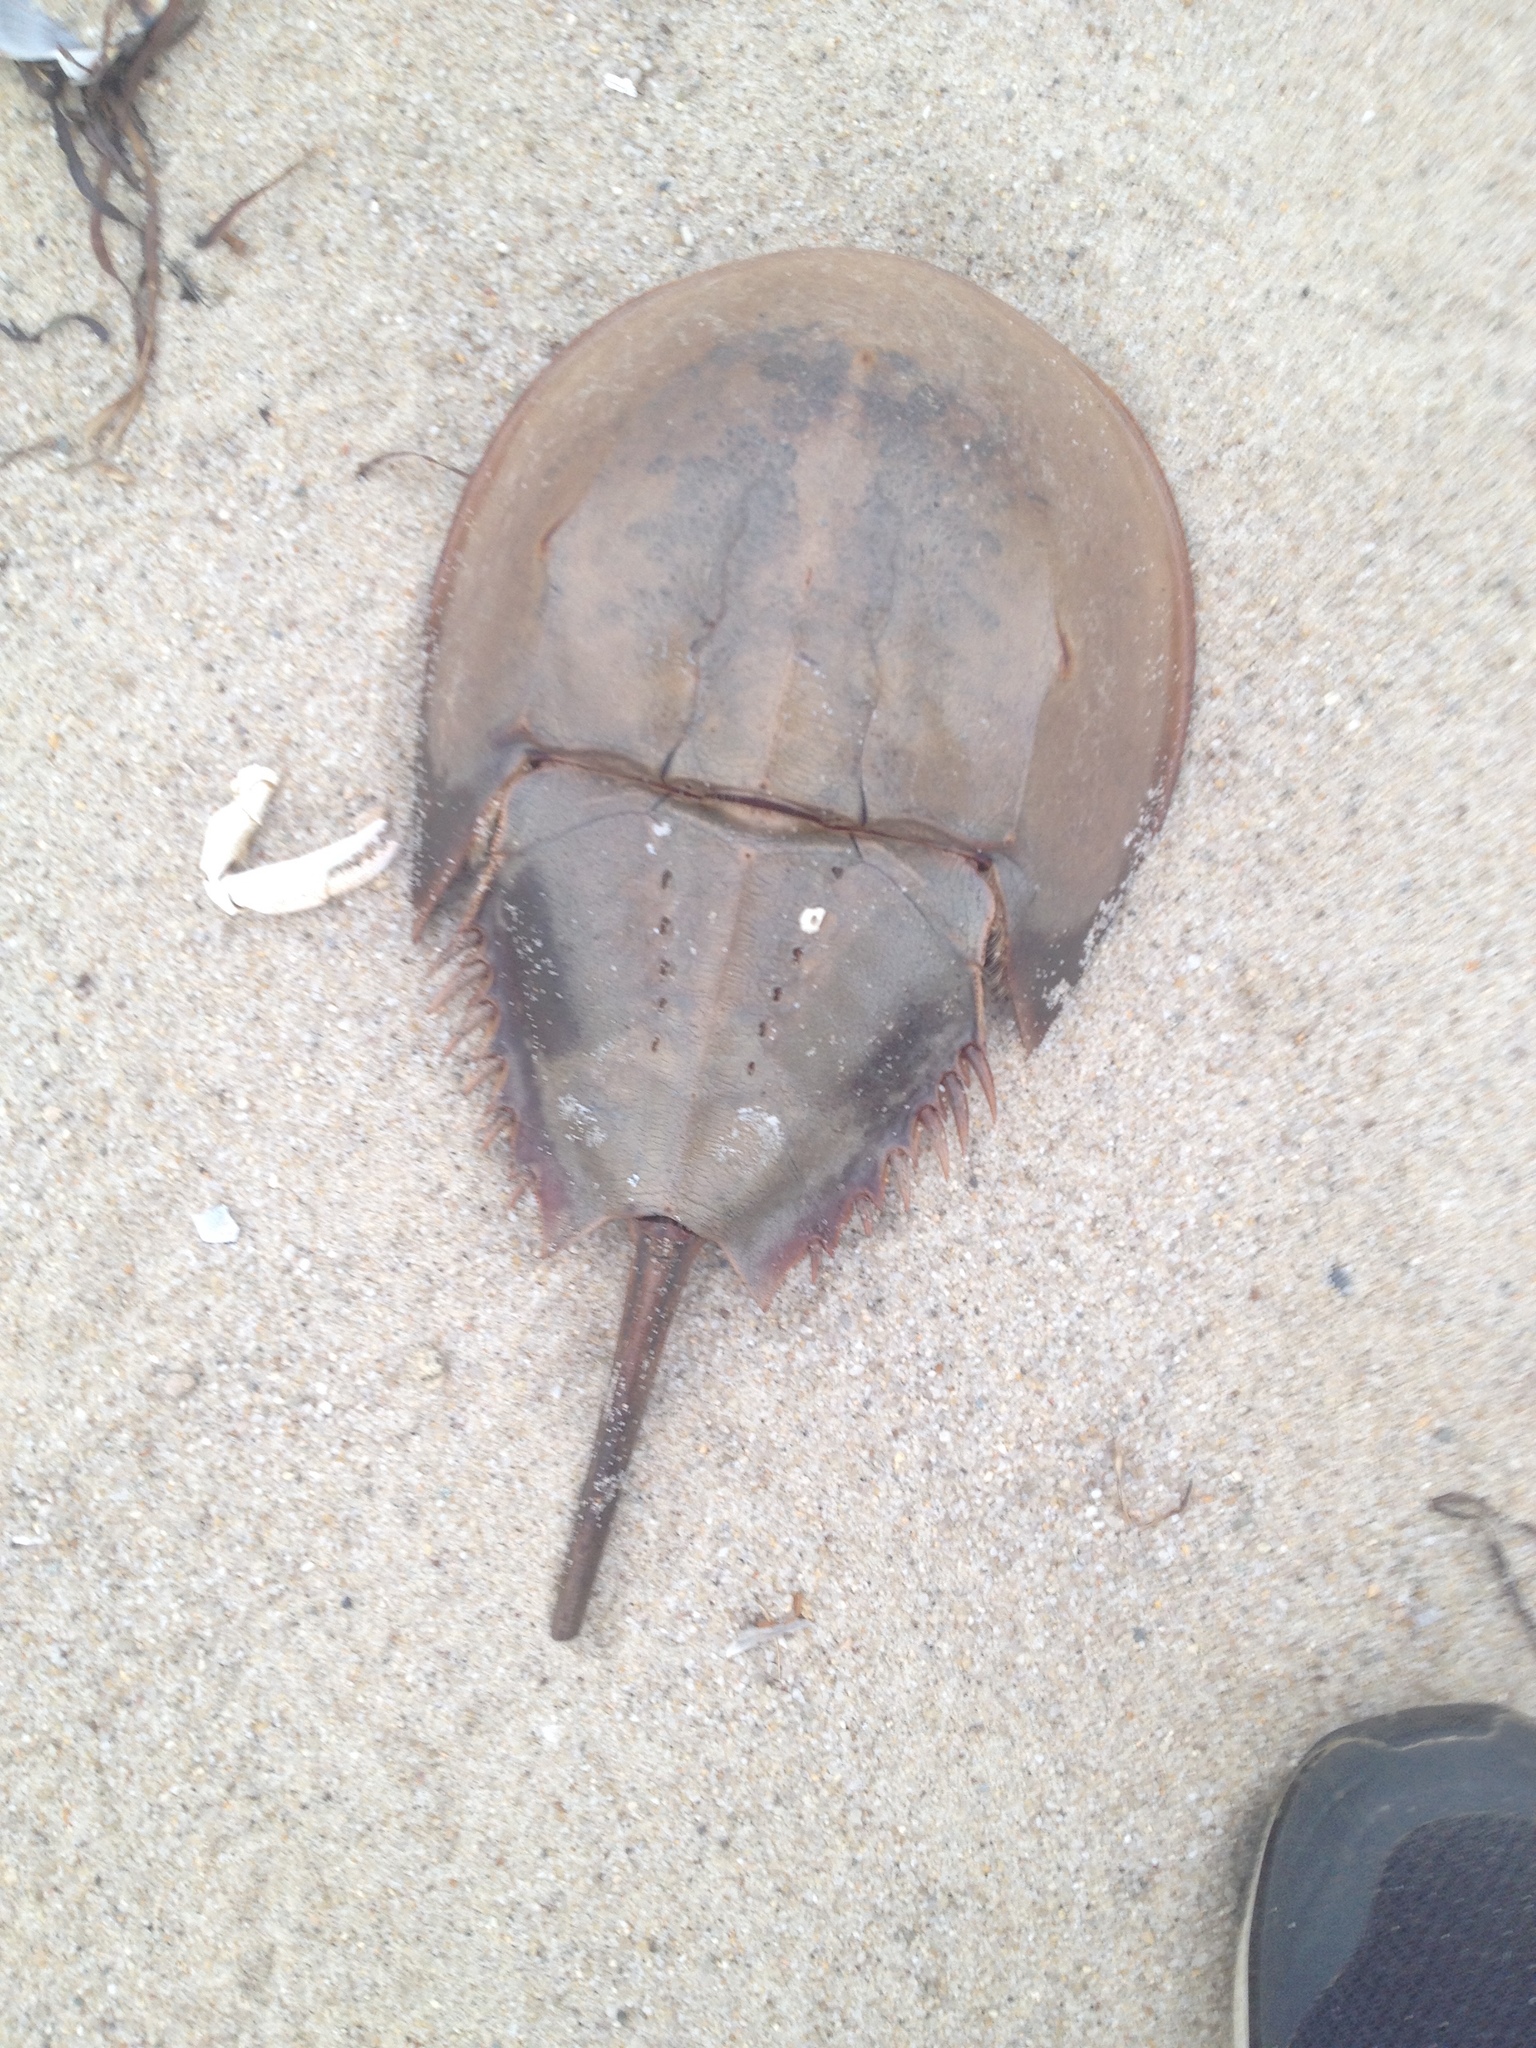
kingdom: Animalia
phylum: Arthropoda
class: Merostomata
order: Xiphosurida
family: Limulidae
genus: Limulus
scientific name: Limulus polyphemus
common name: Horseshoe crab
